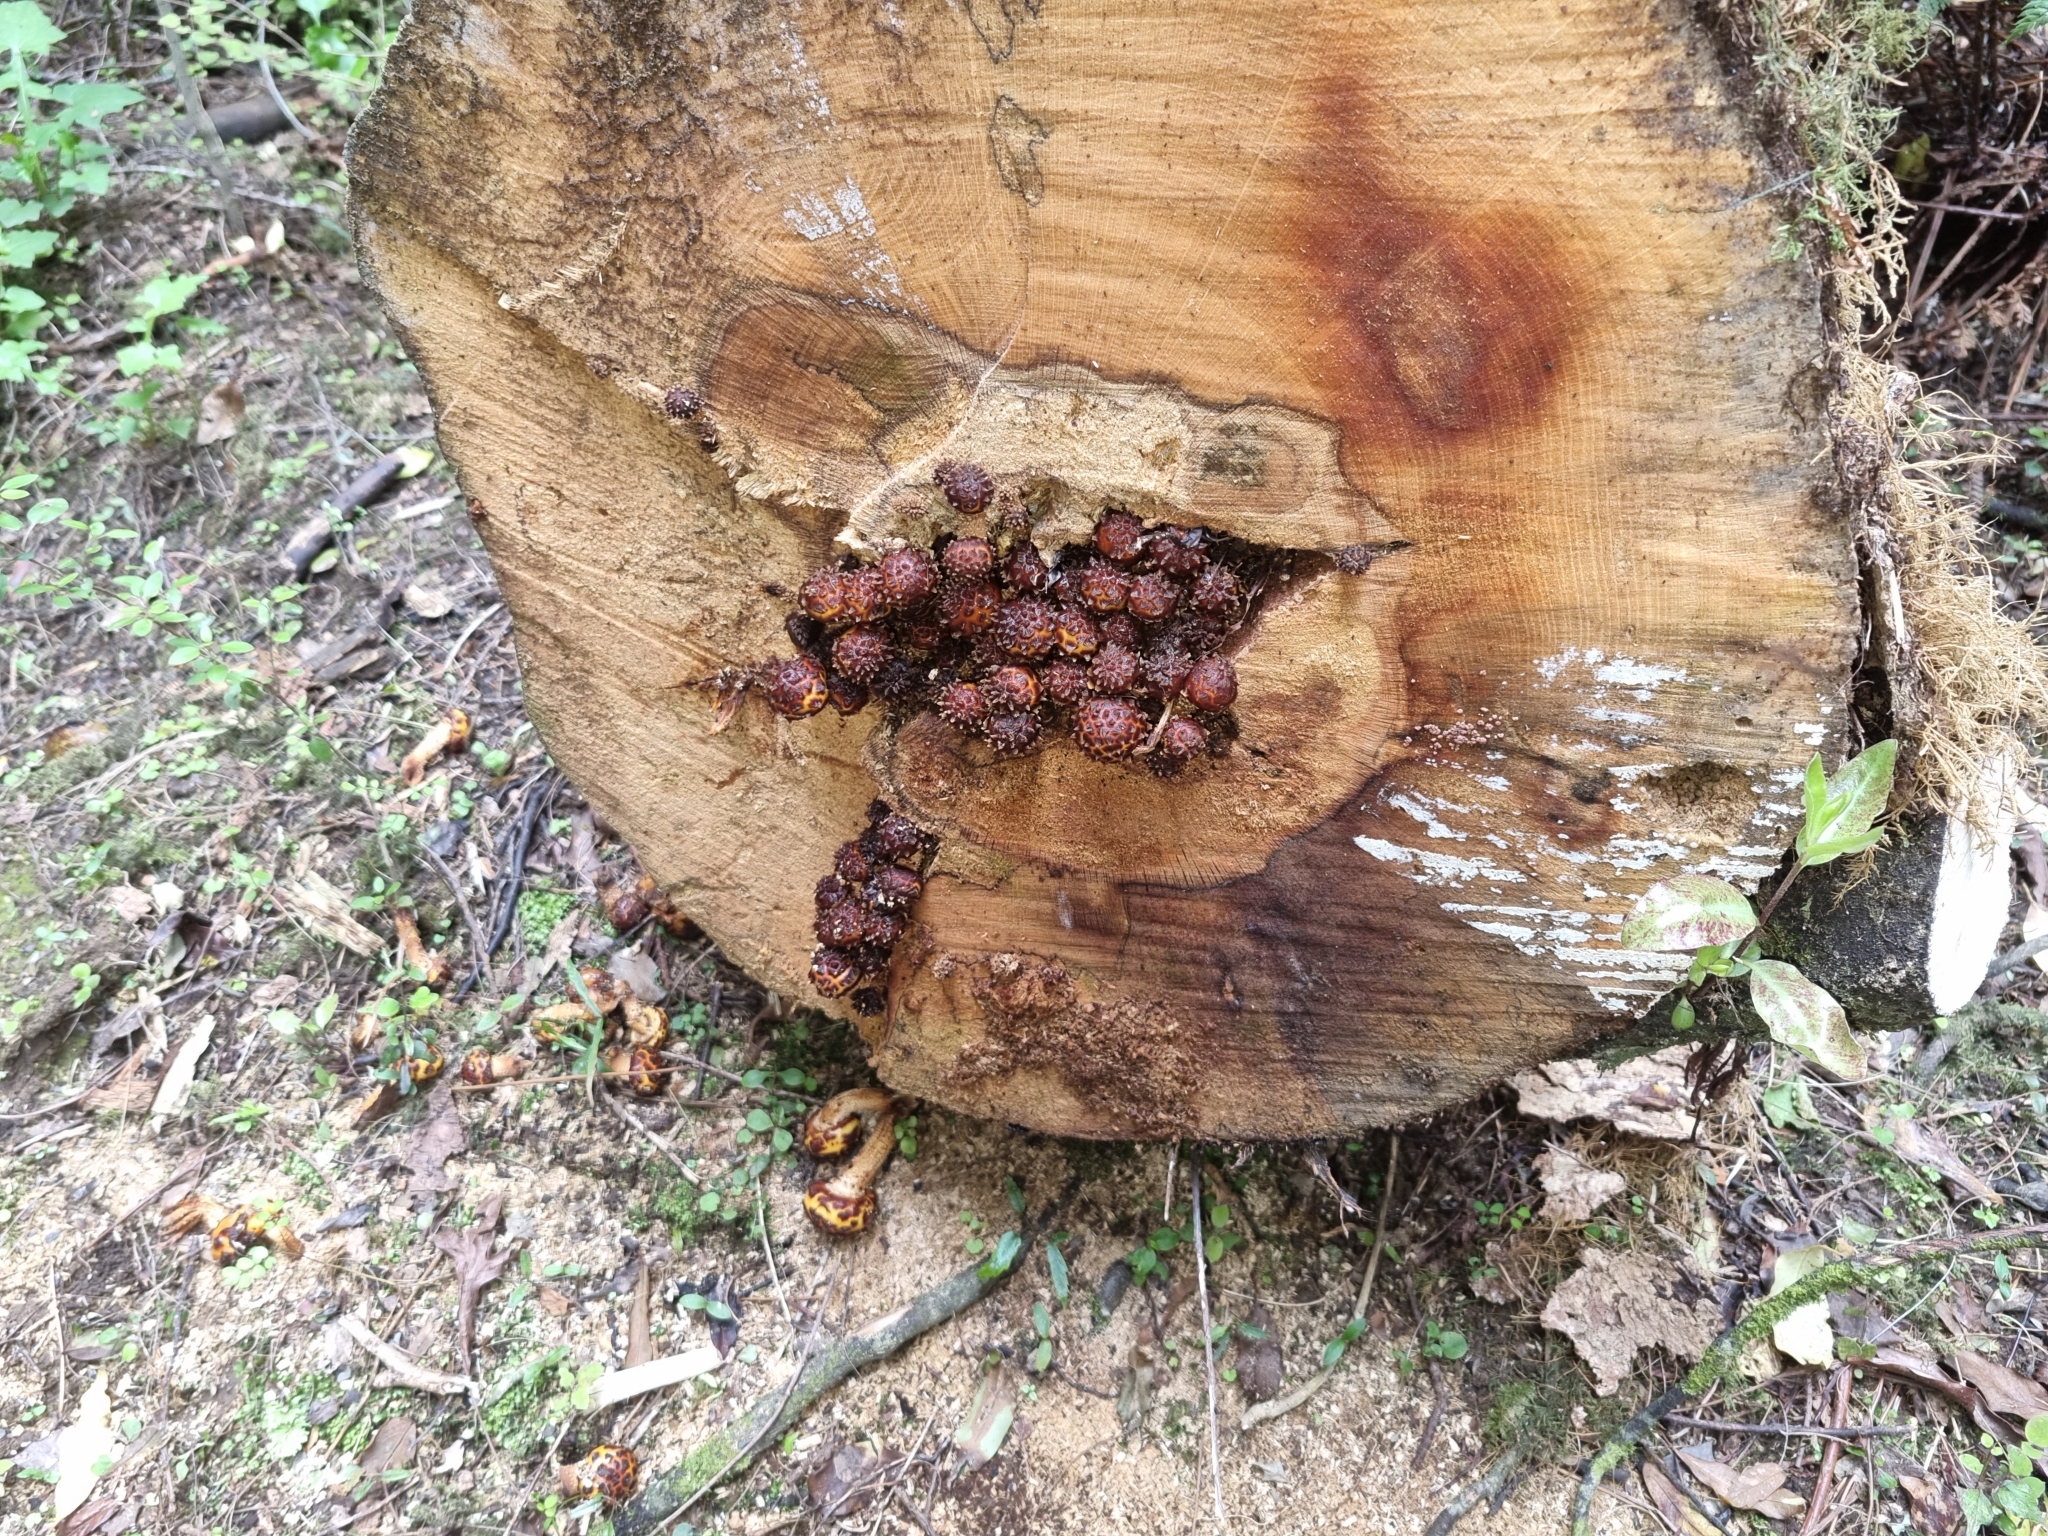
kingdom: Fungi
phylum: Basidiomycota
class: Agaricomycetes
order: Agaricales
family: Strophariaceae
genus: Pholiota
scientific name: Pholiota glutinosa
